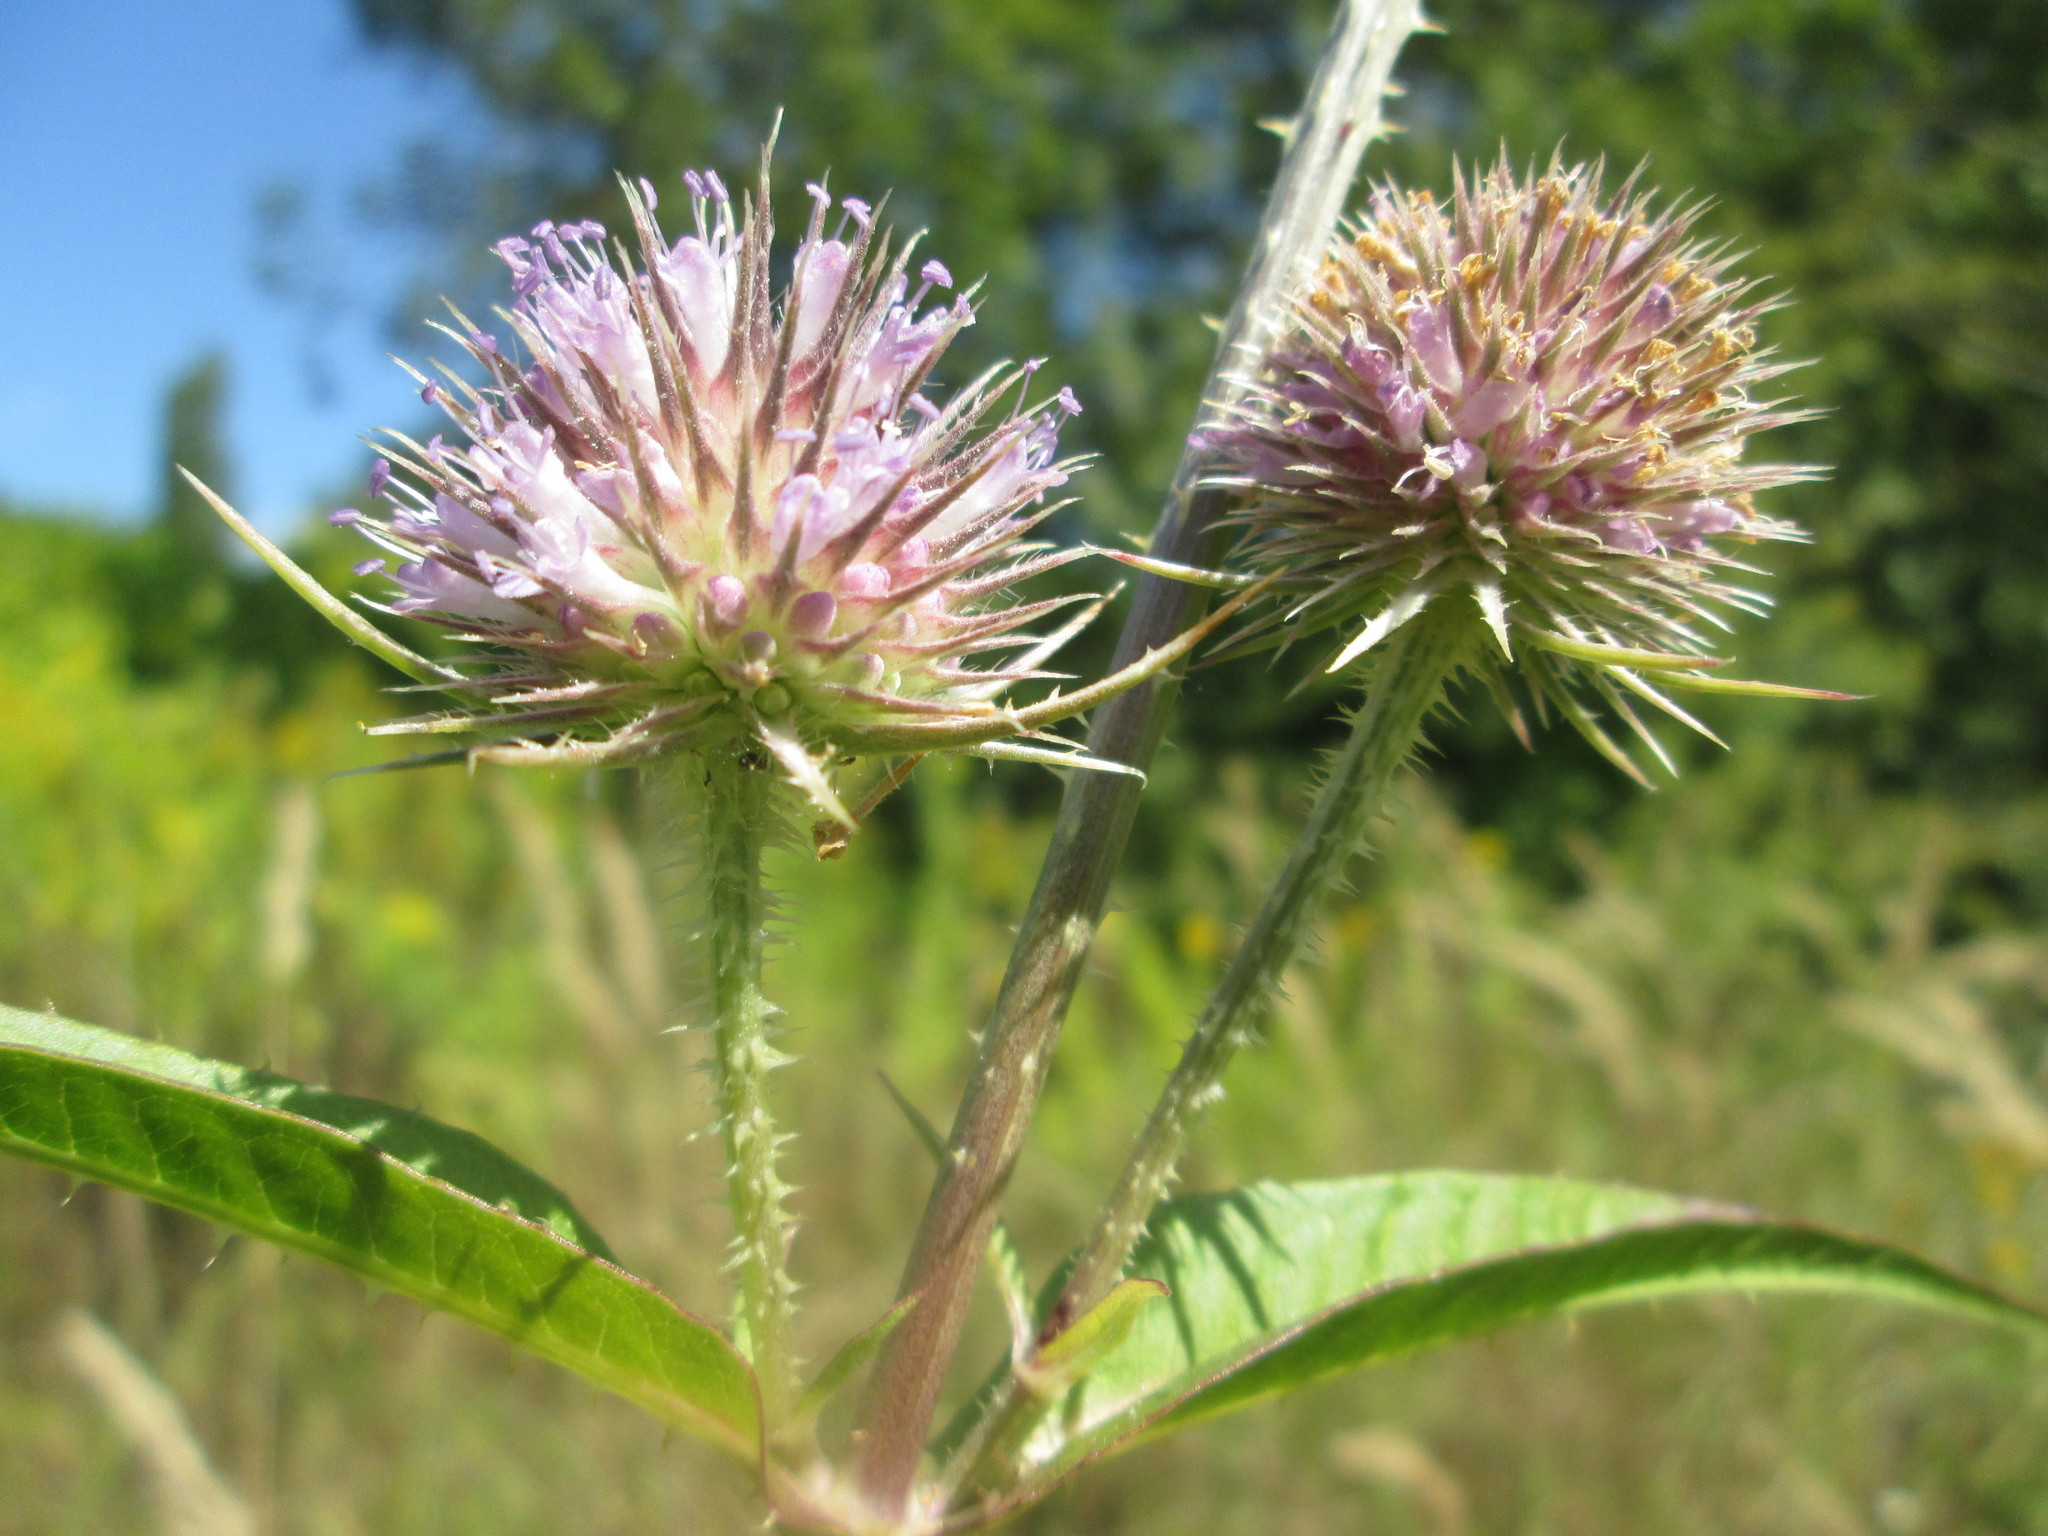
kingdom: Plantae
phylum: Tracheophyta
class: Magnoliopsida
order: Dipsacales
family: Caprifoliaceae
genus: Dipsacus
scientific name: Dipsacus fullonum
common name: Teasel
